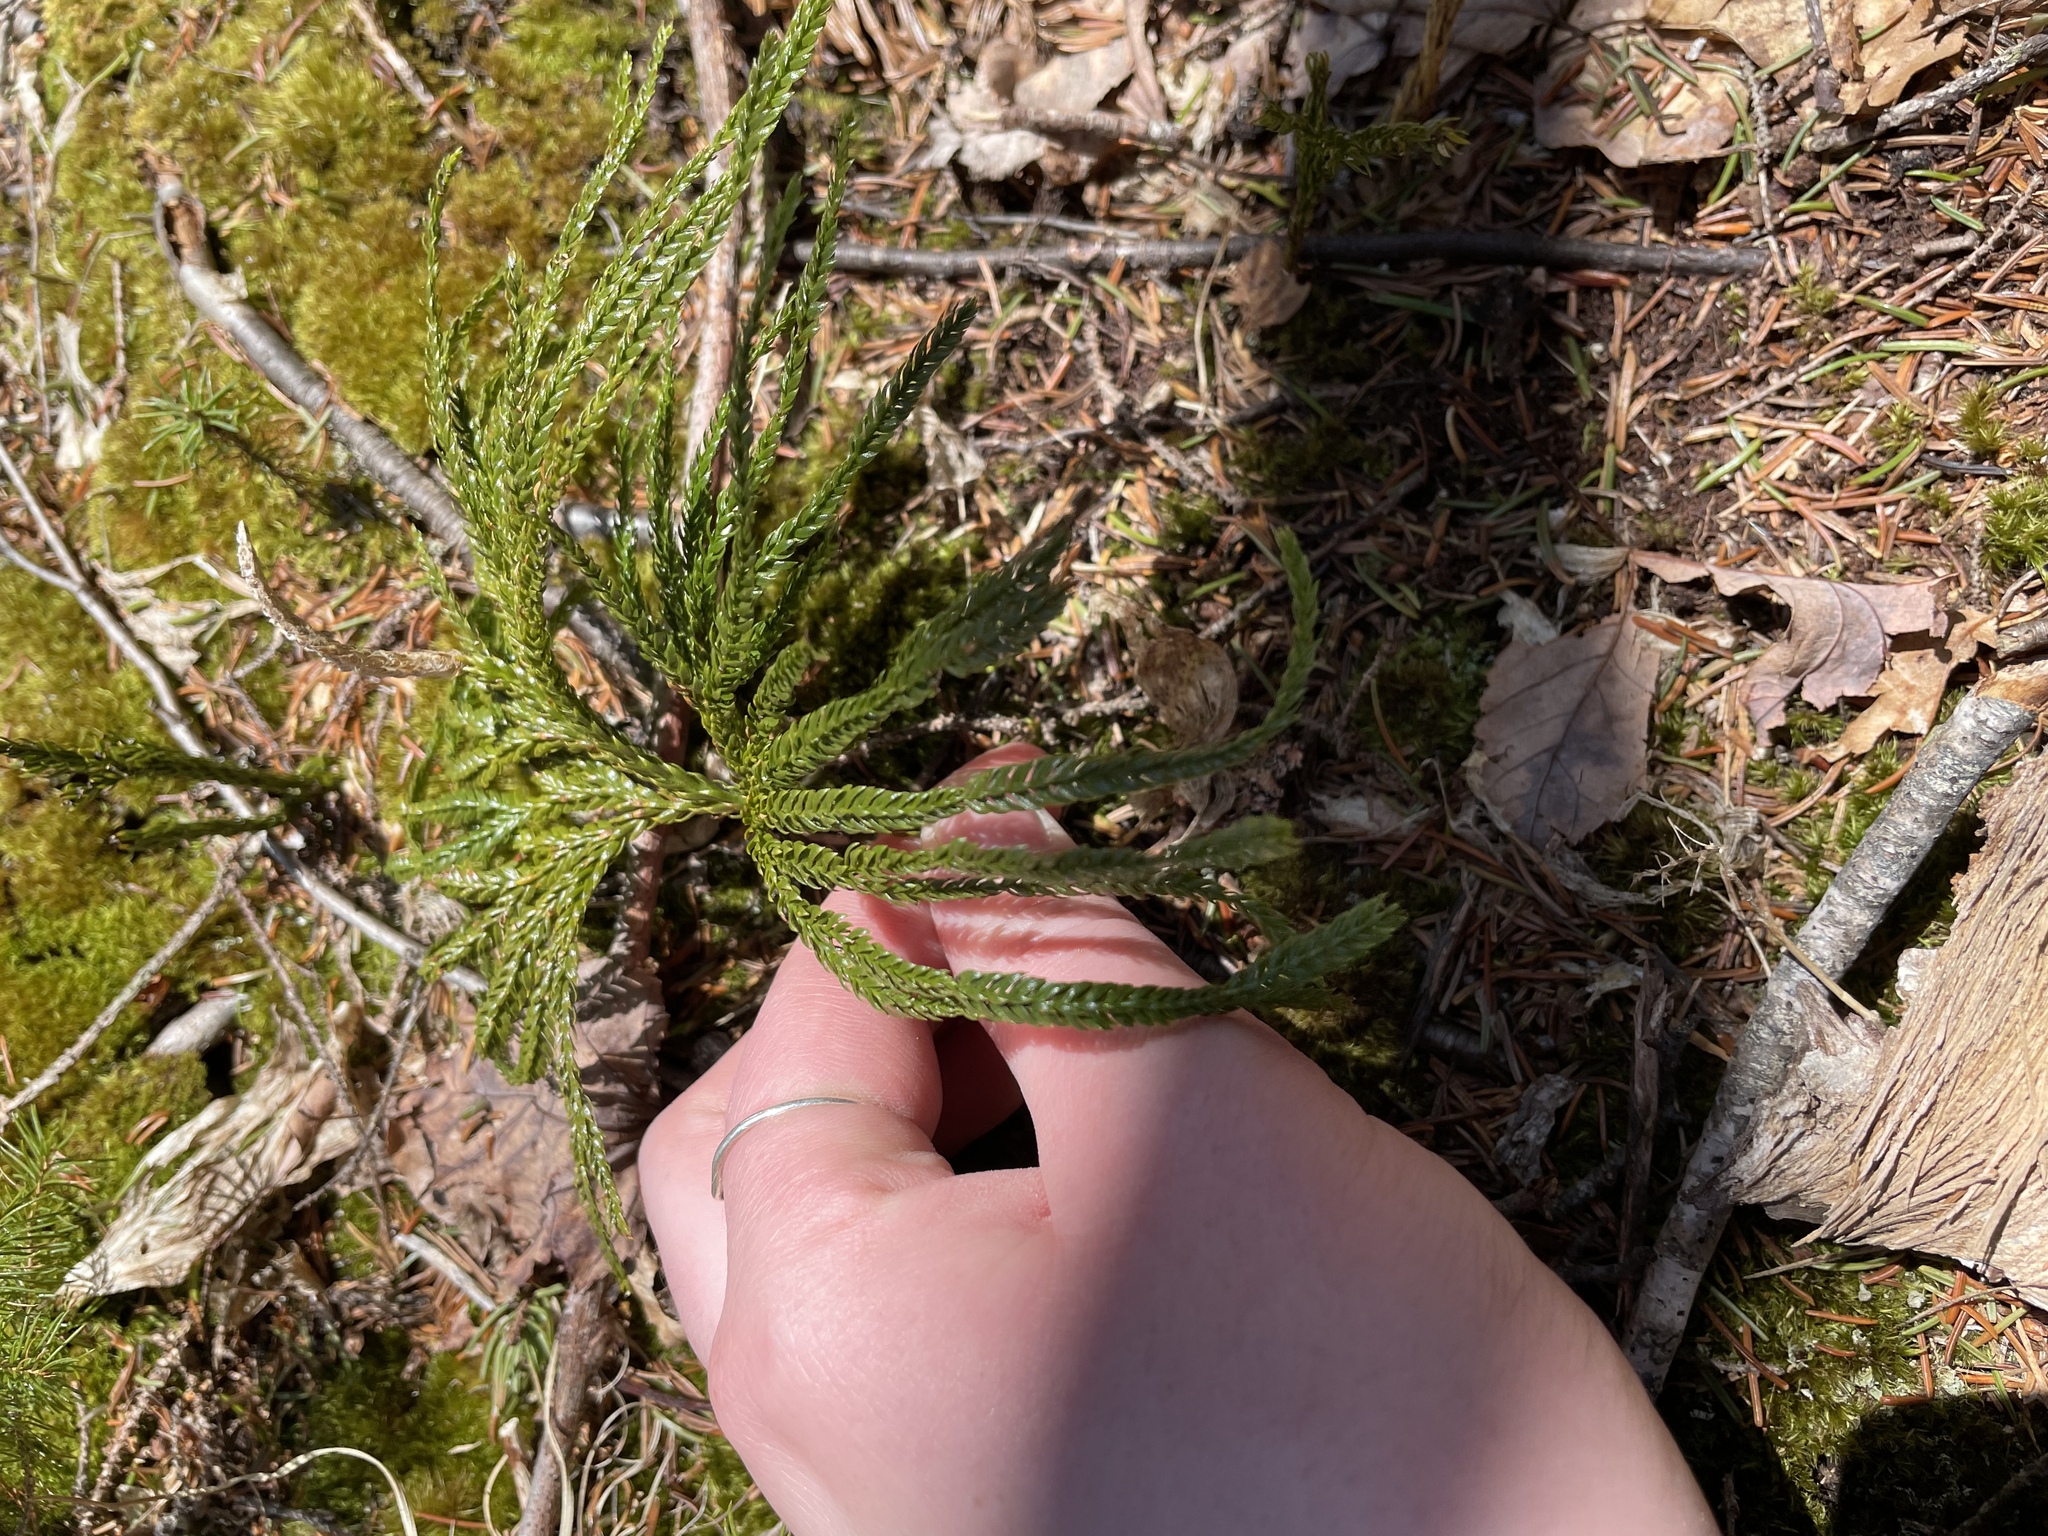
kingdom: Plantae
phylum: Tracheophyta
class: Lycopodiopsida
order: Lycopodiales
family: Lycopodiaceae
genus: Dendrolycopodium
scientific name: Dendrolycopodium obscurum
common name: Common ground-pine
